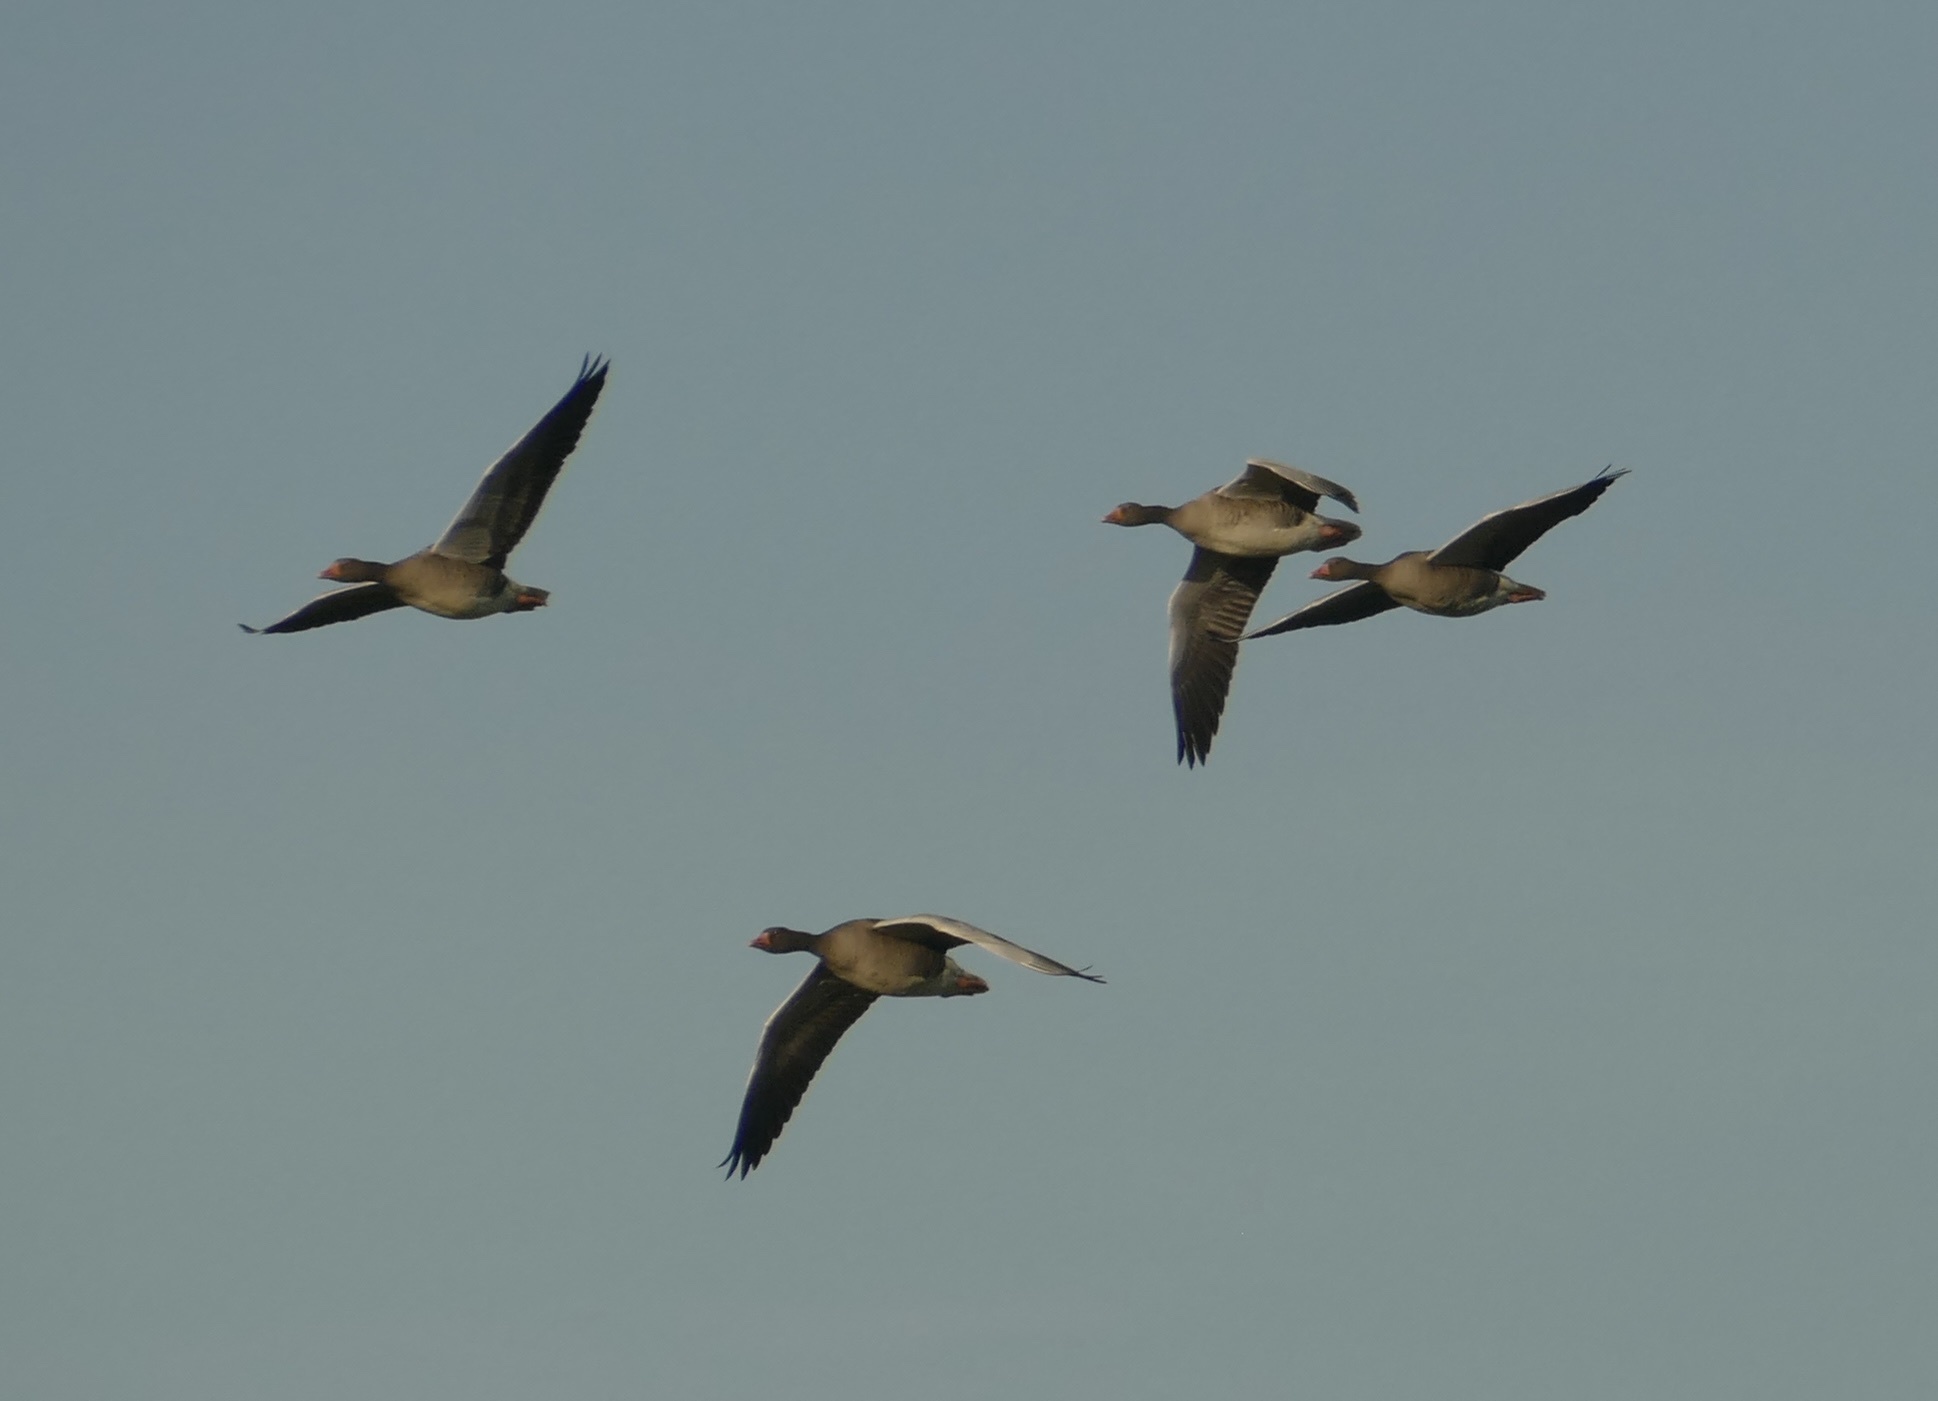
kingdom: Animalia
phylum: Chordata
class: Aves
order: Anseriformes
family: Anatidae
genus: Anser
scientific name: Anser anser
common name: Greylag goose
